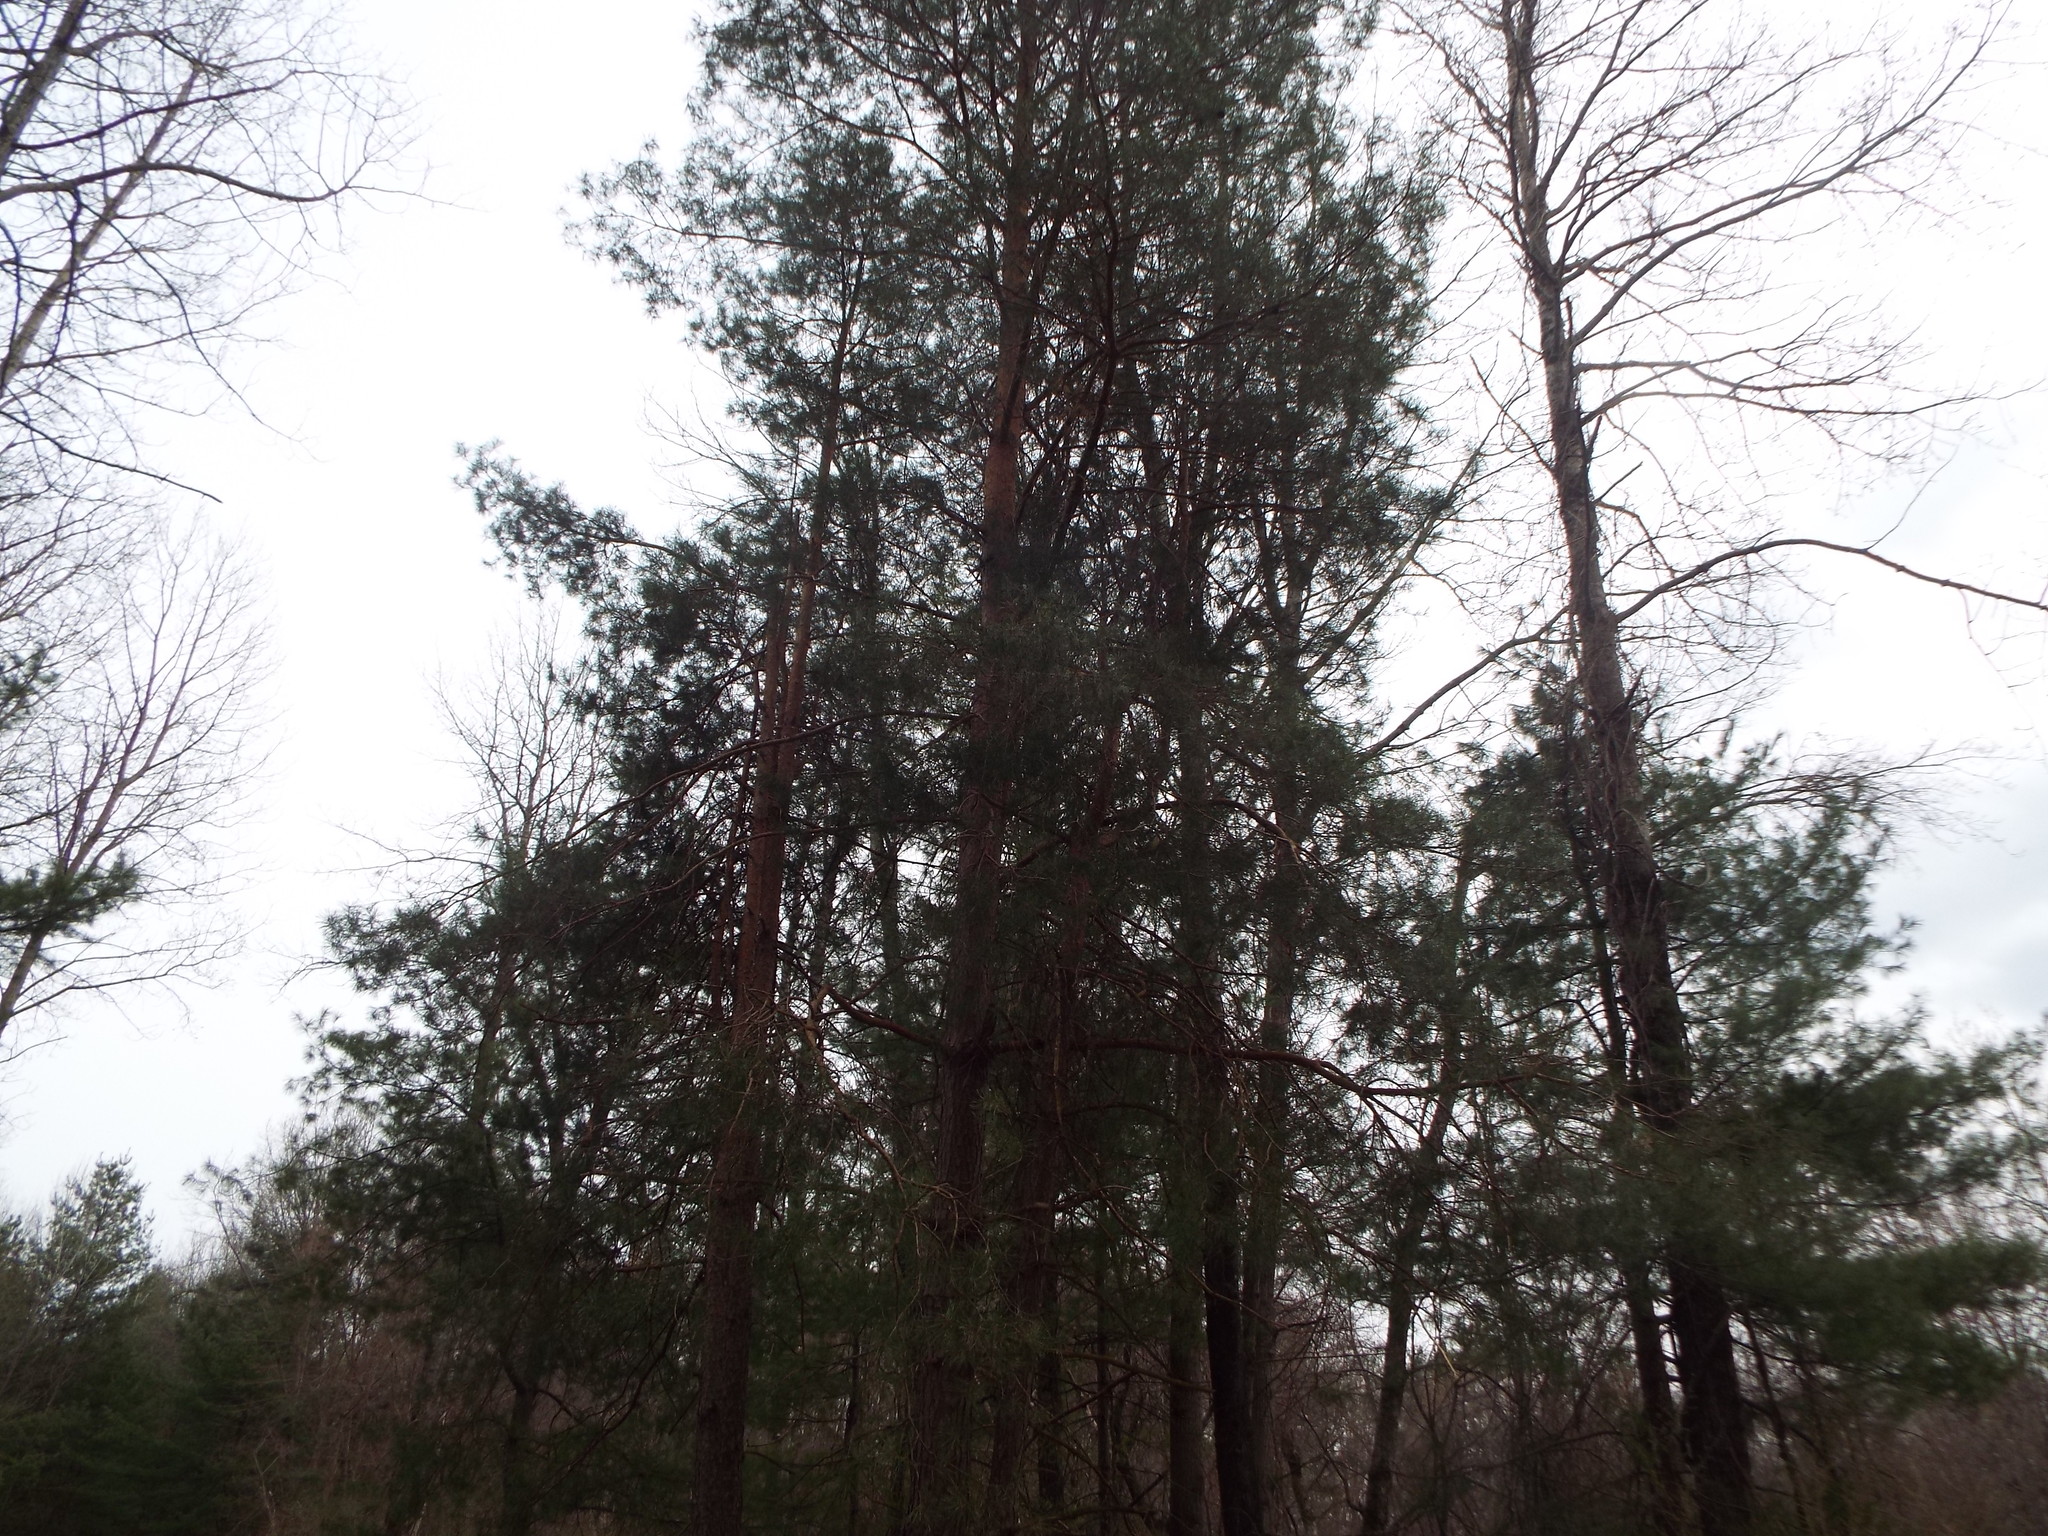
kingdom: Plantae
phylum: Tracheophyta
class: Pinopsida
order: Pinales
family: Pinaceae
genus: Pinus
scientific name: Pinus resinosa
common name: Norway pine
